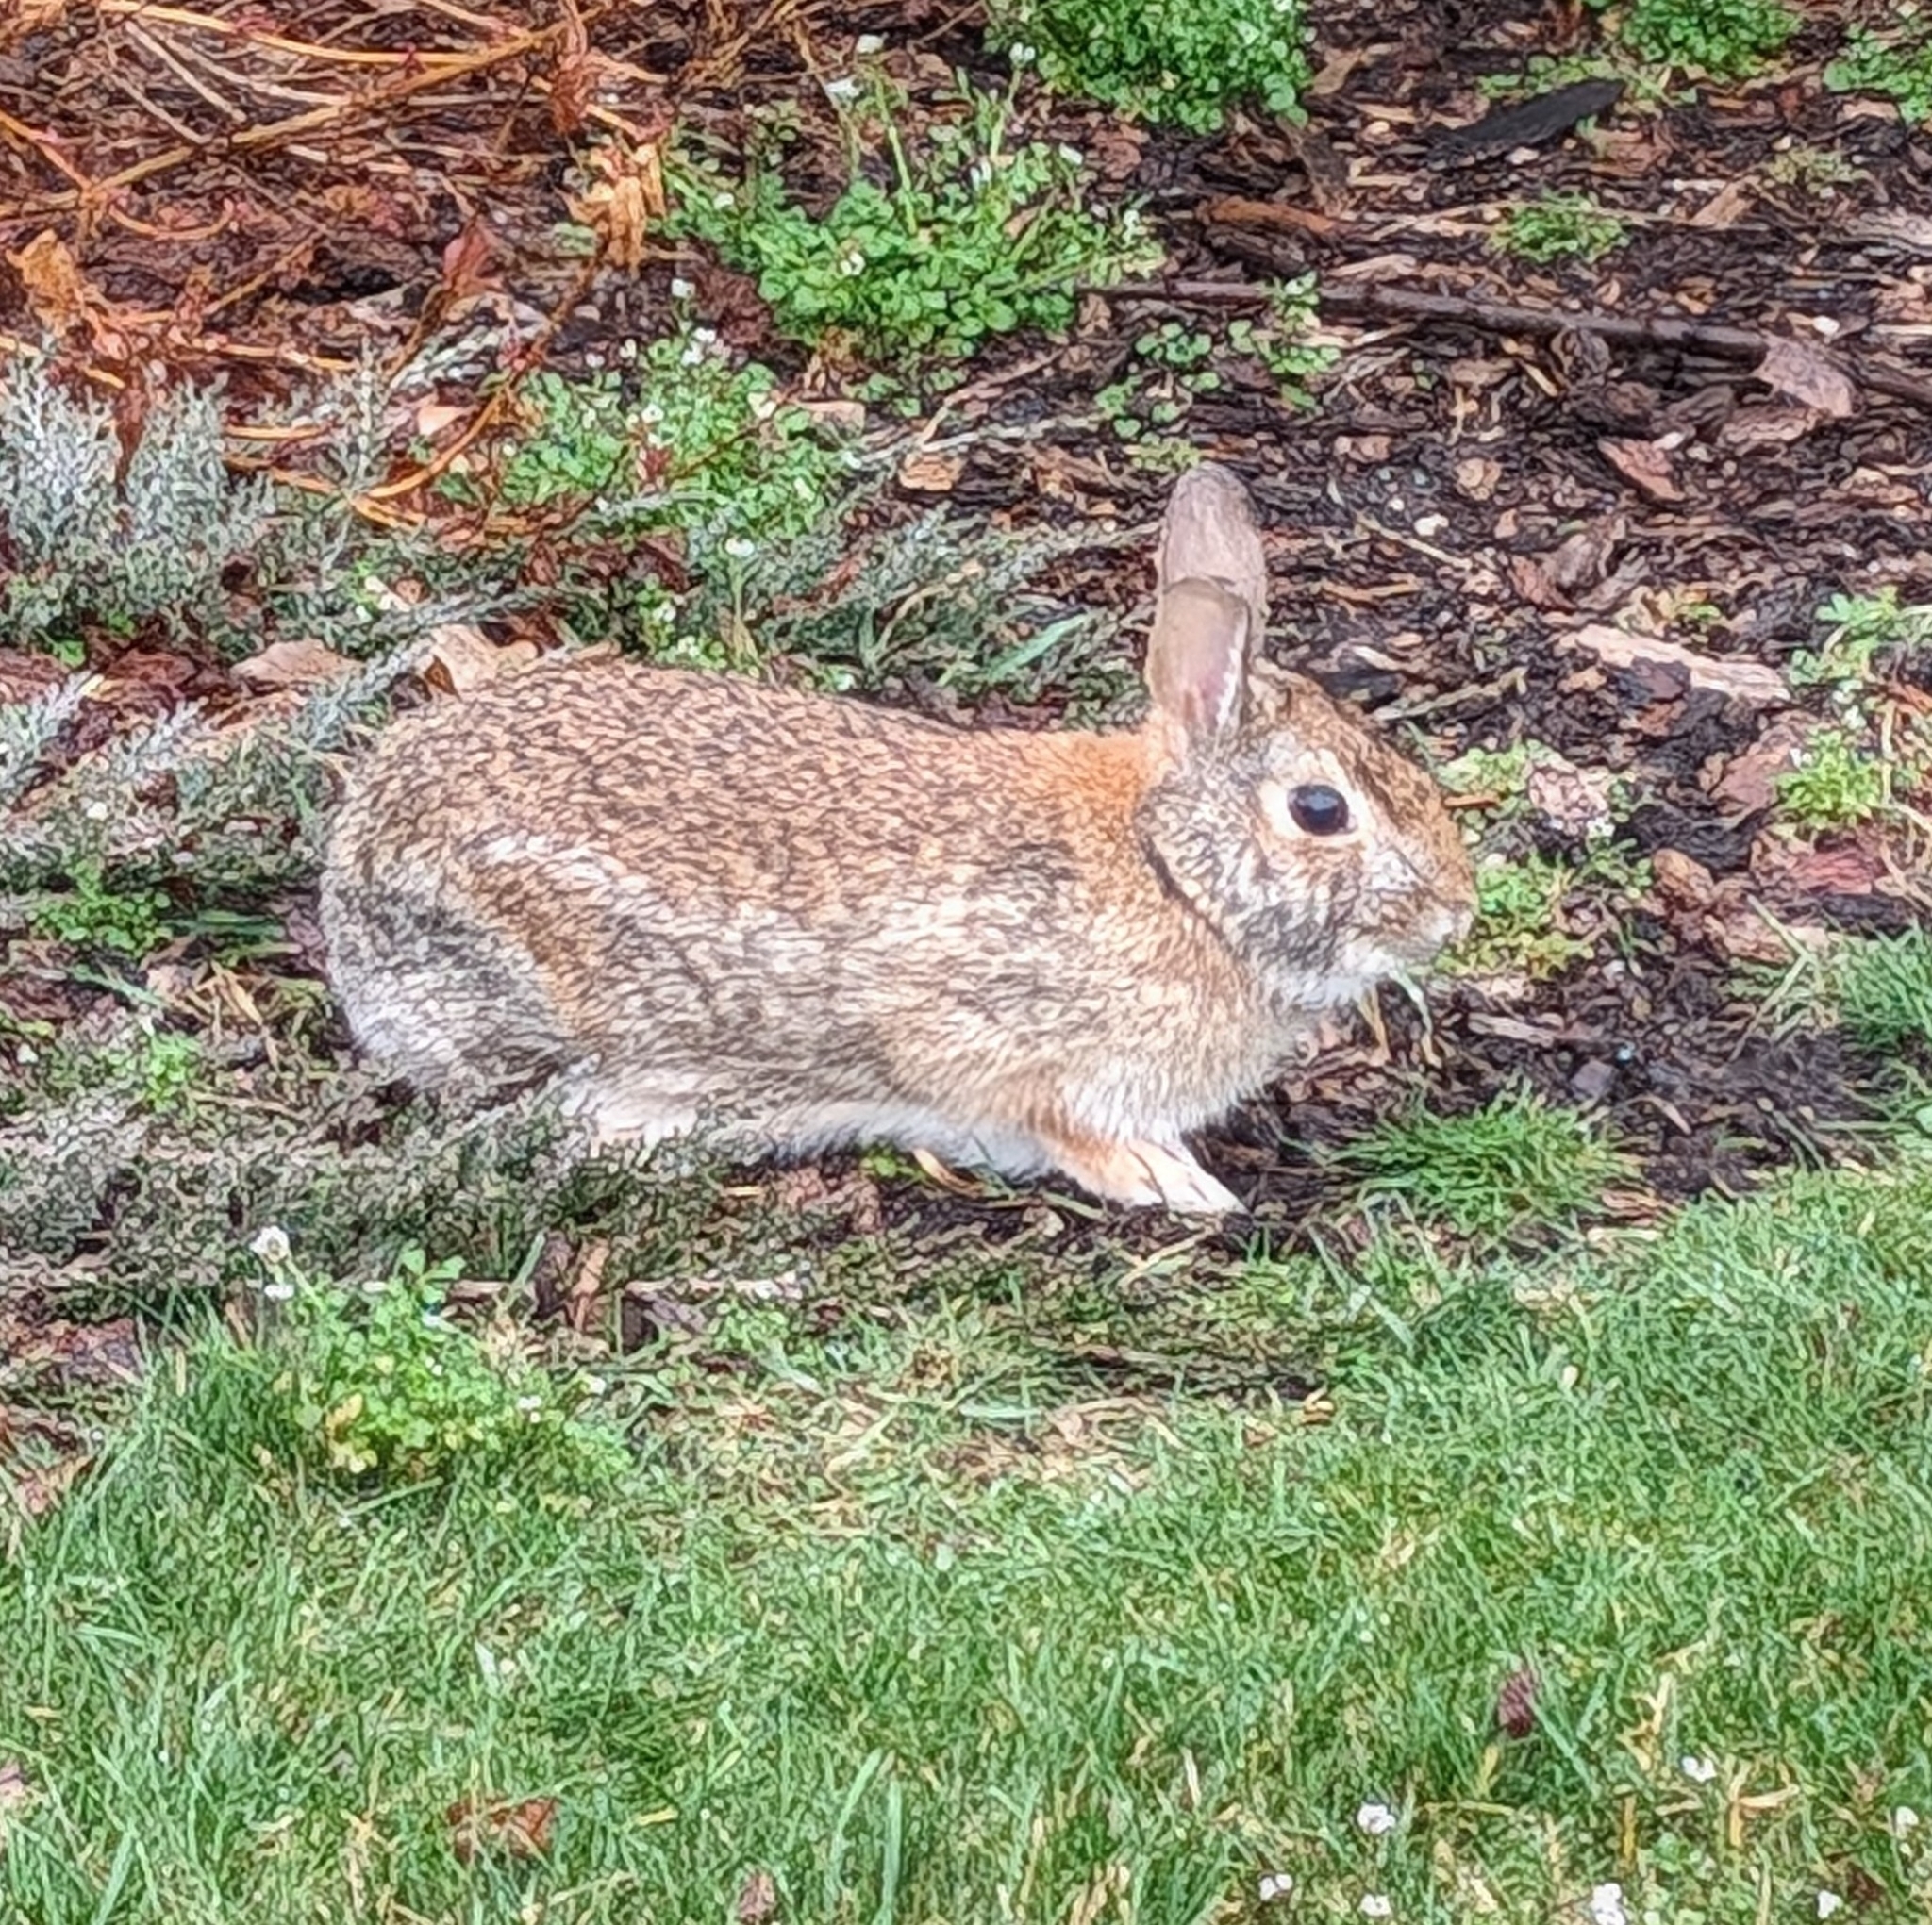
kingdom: Animalia
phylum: Chordata
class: Mammalia
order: Lagomorpha
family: Leporidae
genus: Sylvilagus
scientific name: Sylvilagus floridanus
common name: Eastern cottontail
